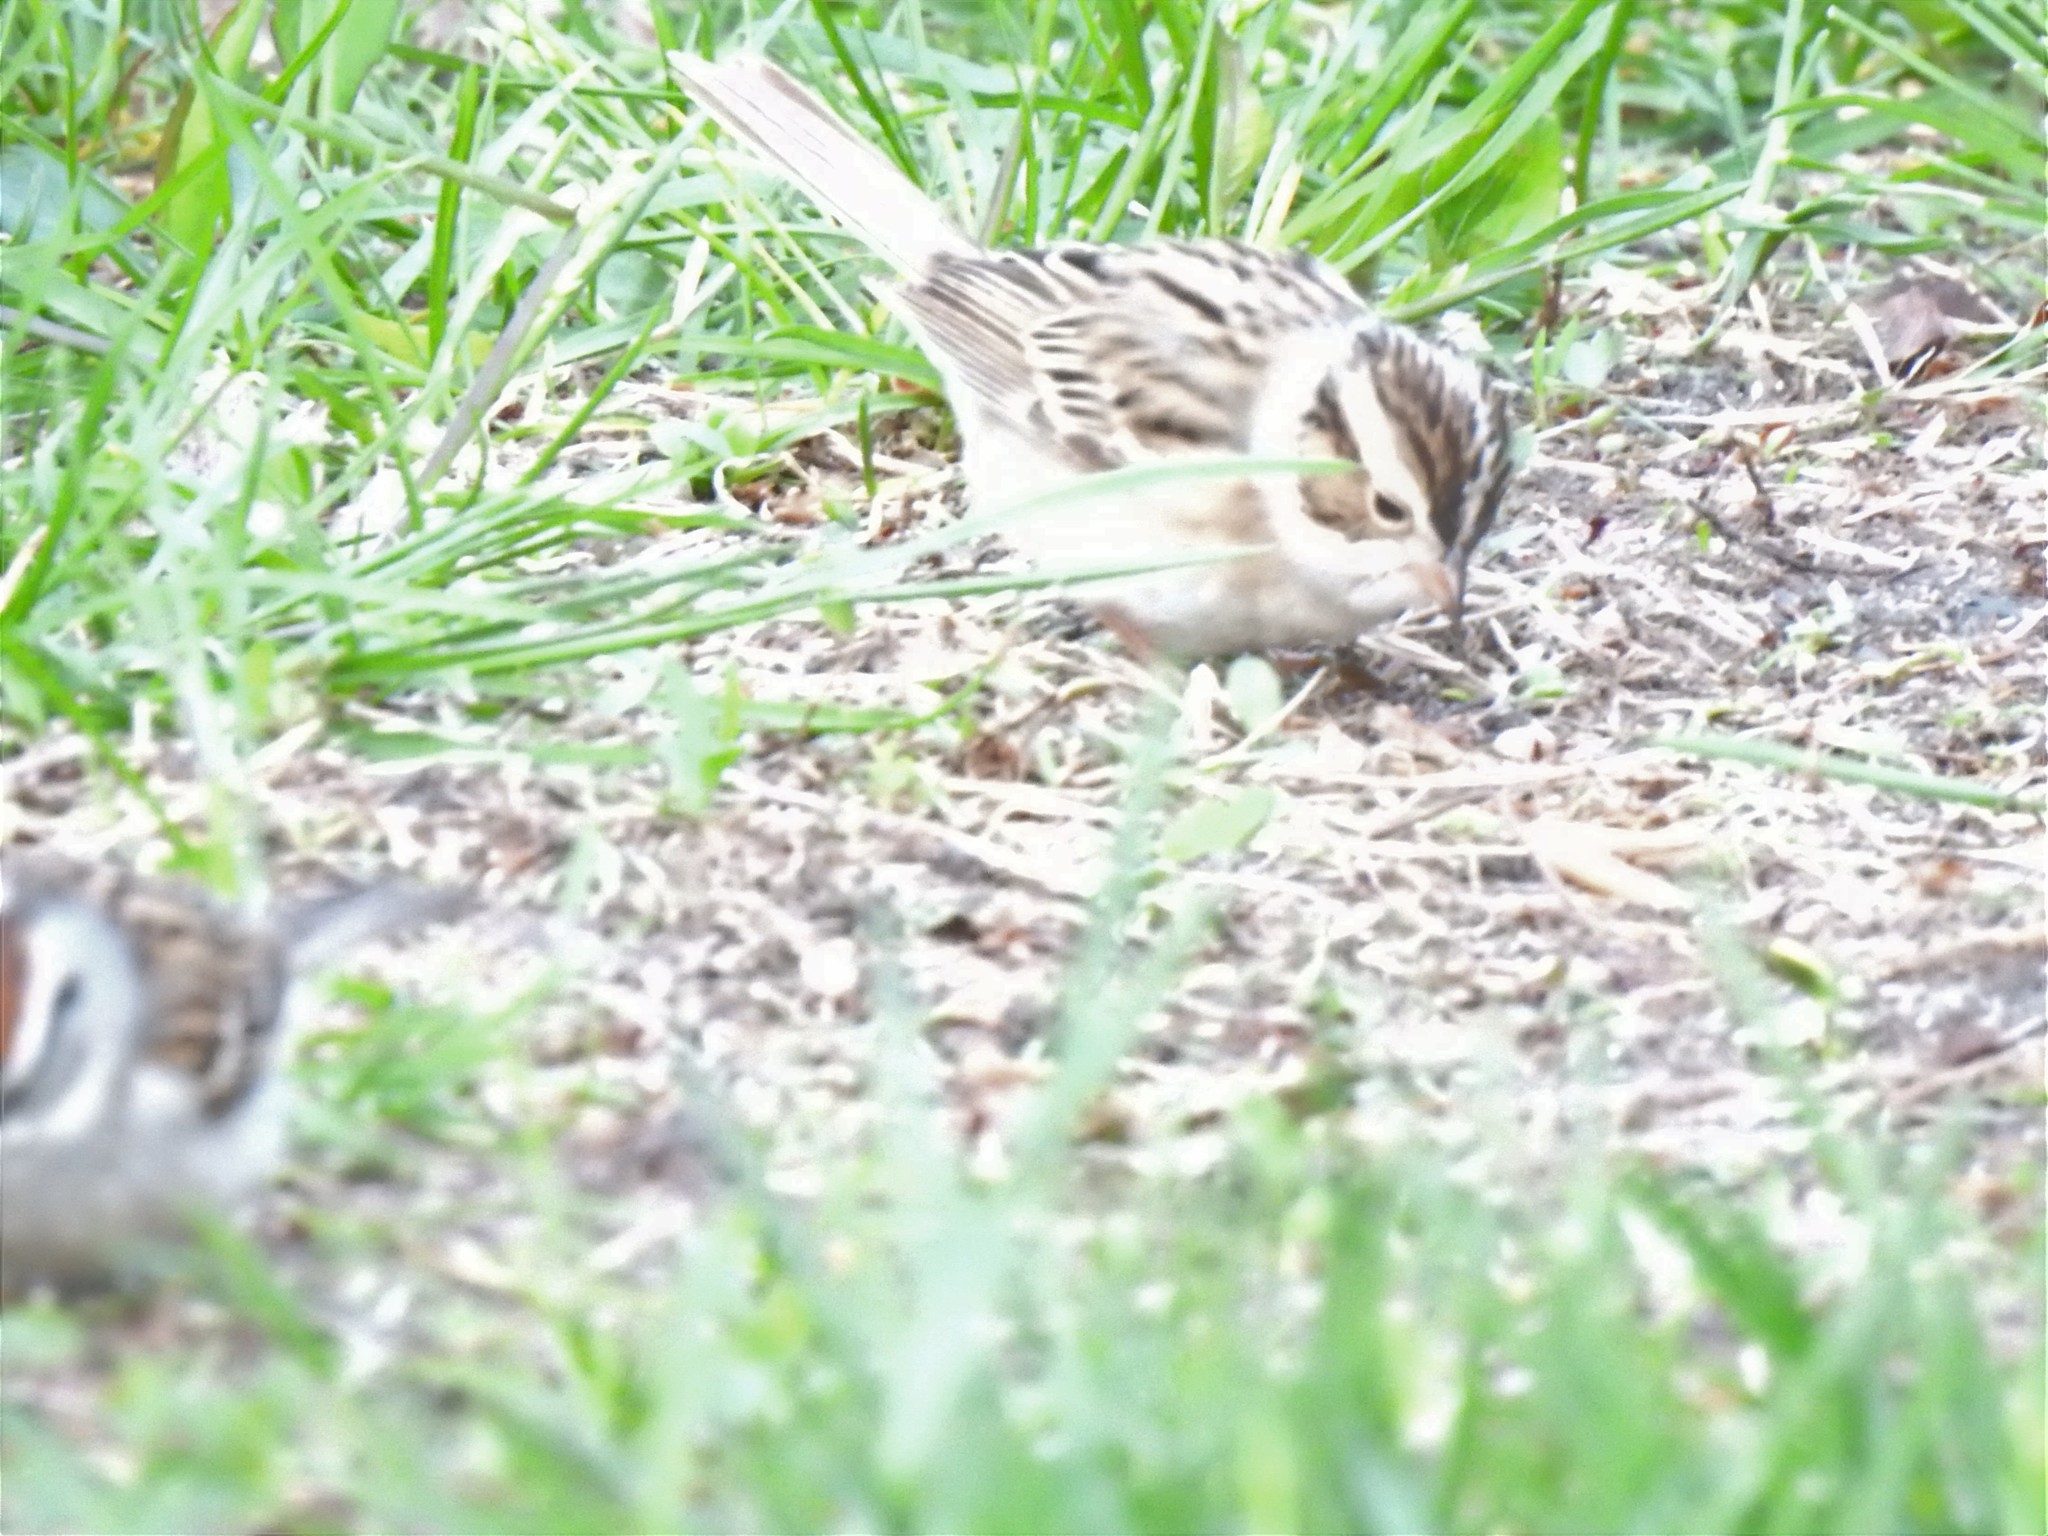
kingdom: Animalia
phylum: Chordata
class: Aves
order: Passeriformes
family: Passerellidae
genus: Spizella
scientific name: Spizella pallida
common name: Clay-colored sparrow
